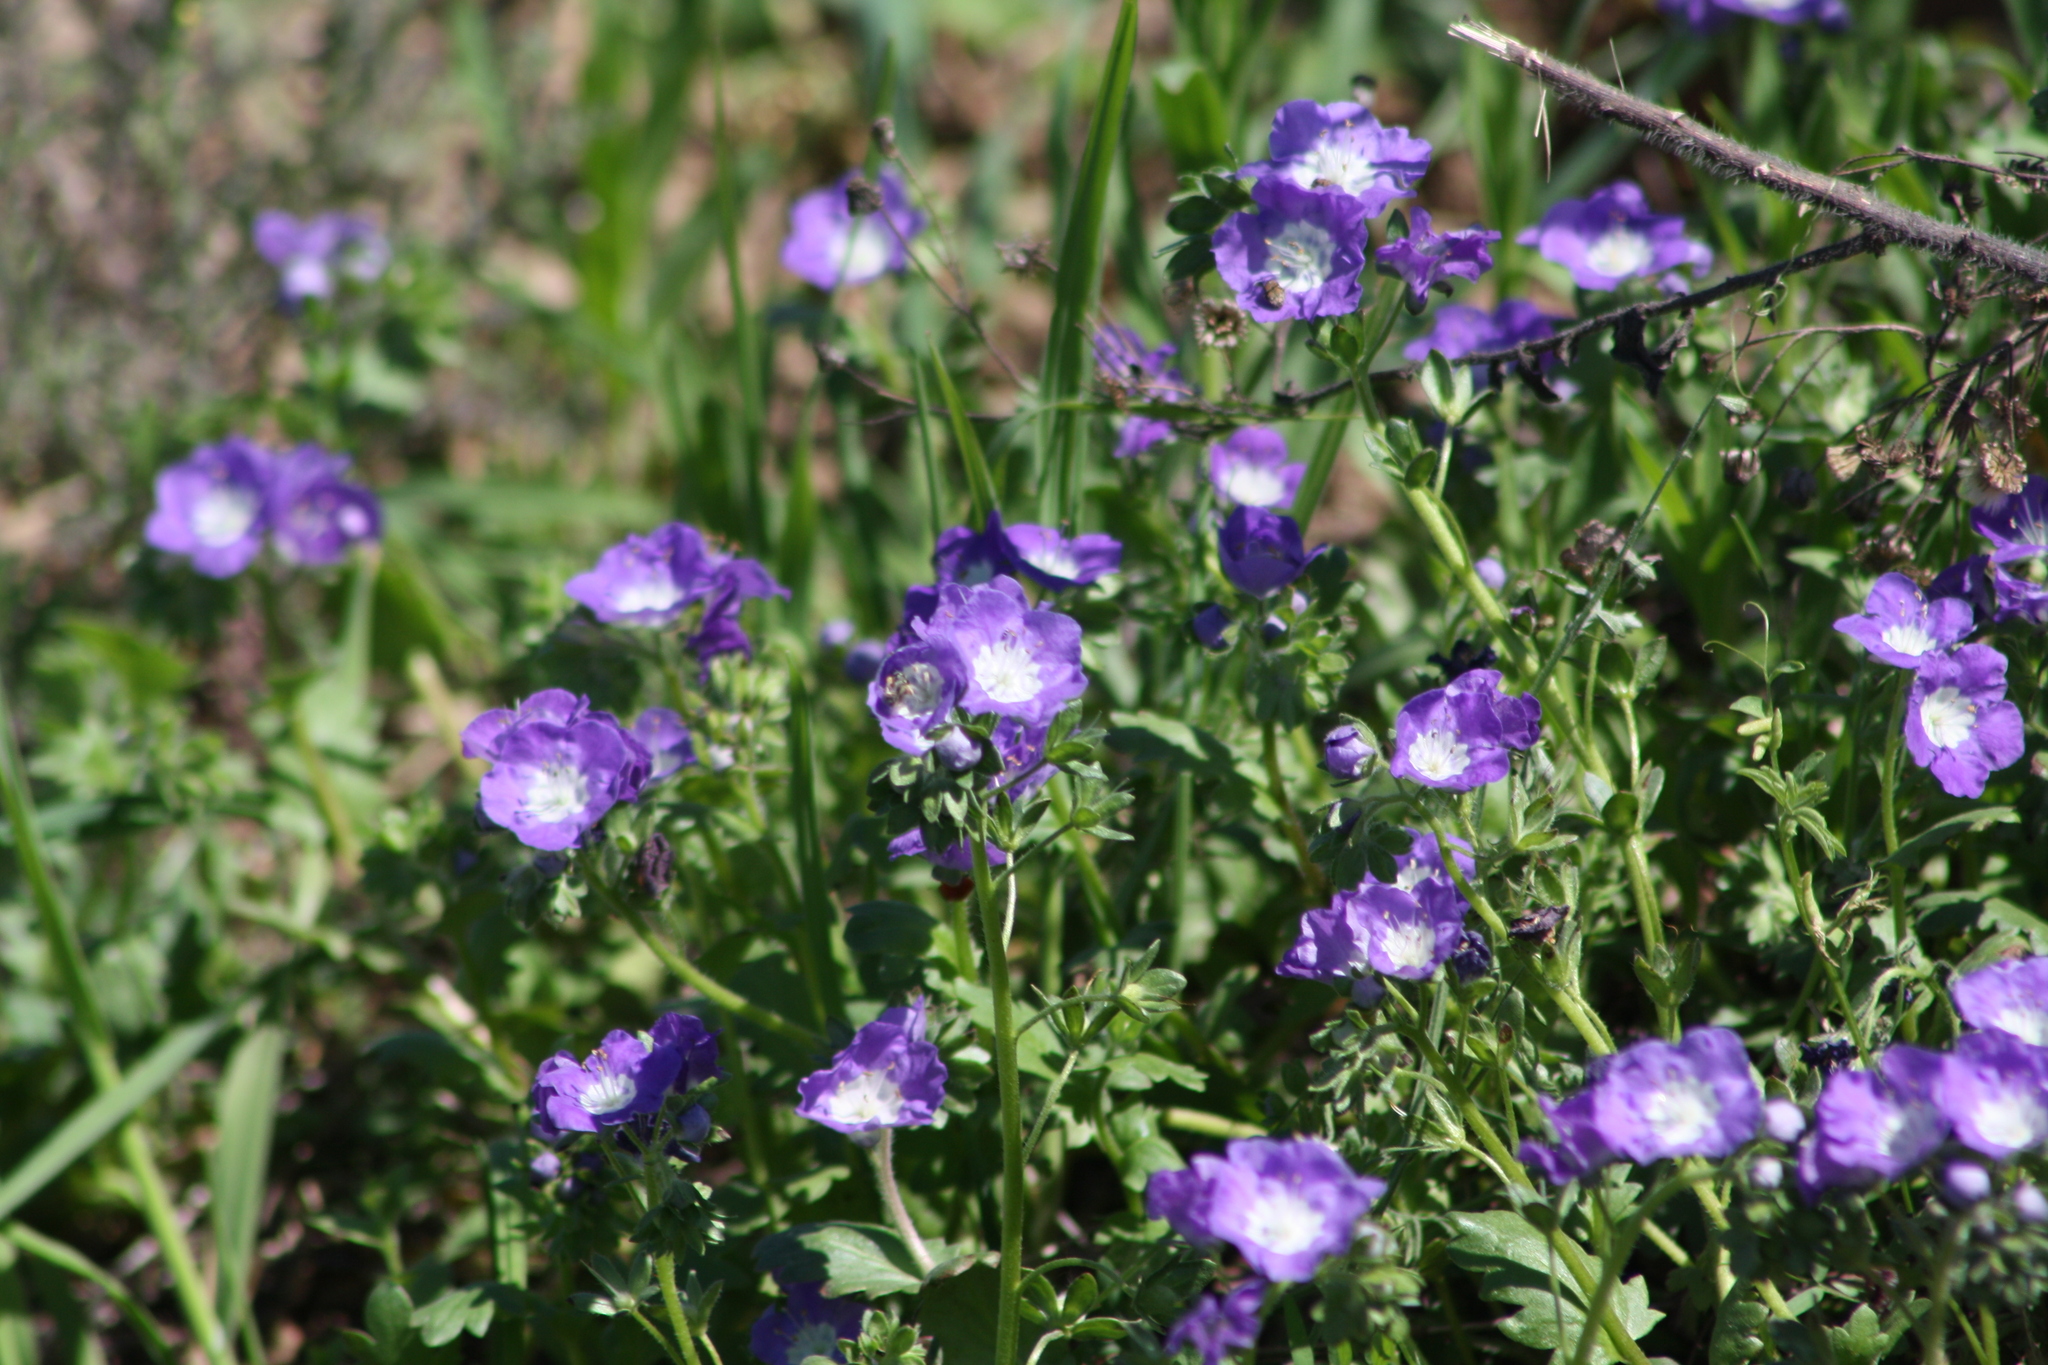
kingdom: Plantae
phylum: Tracheophyta
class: Magnoliopsida
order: Boraginales
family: Hydrophyllaceae
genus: Phacelia
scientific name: Phacelia patuliflora
